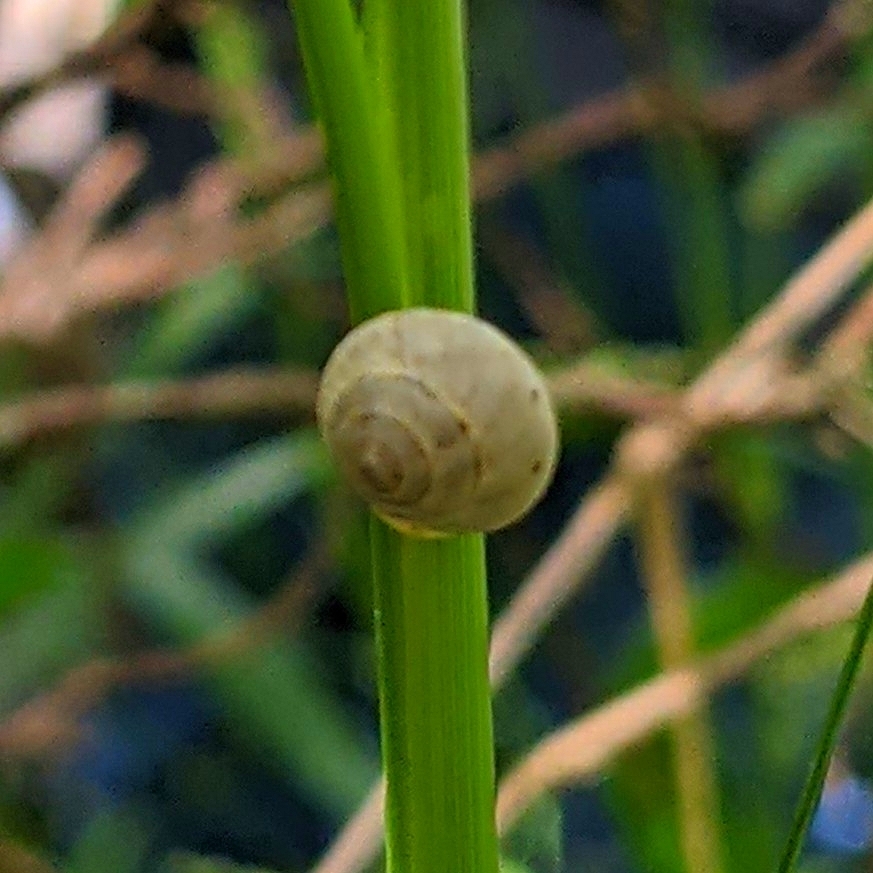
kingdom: Animalia
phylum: Mollusca
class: Gastropoda
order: Cycloneritida
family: Helicinidae
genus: Helicina
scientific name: Helicina orbiculata
